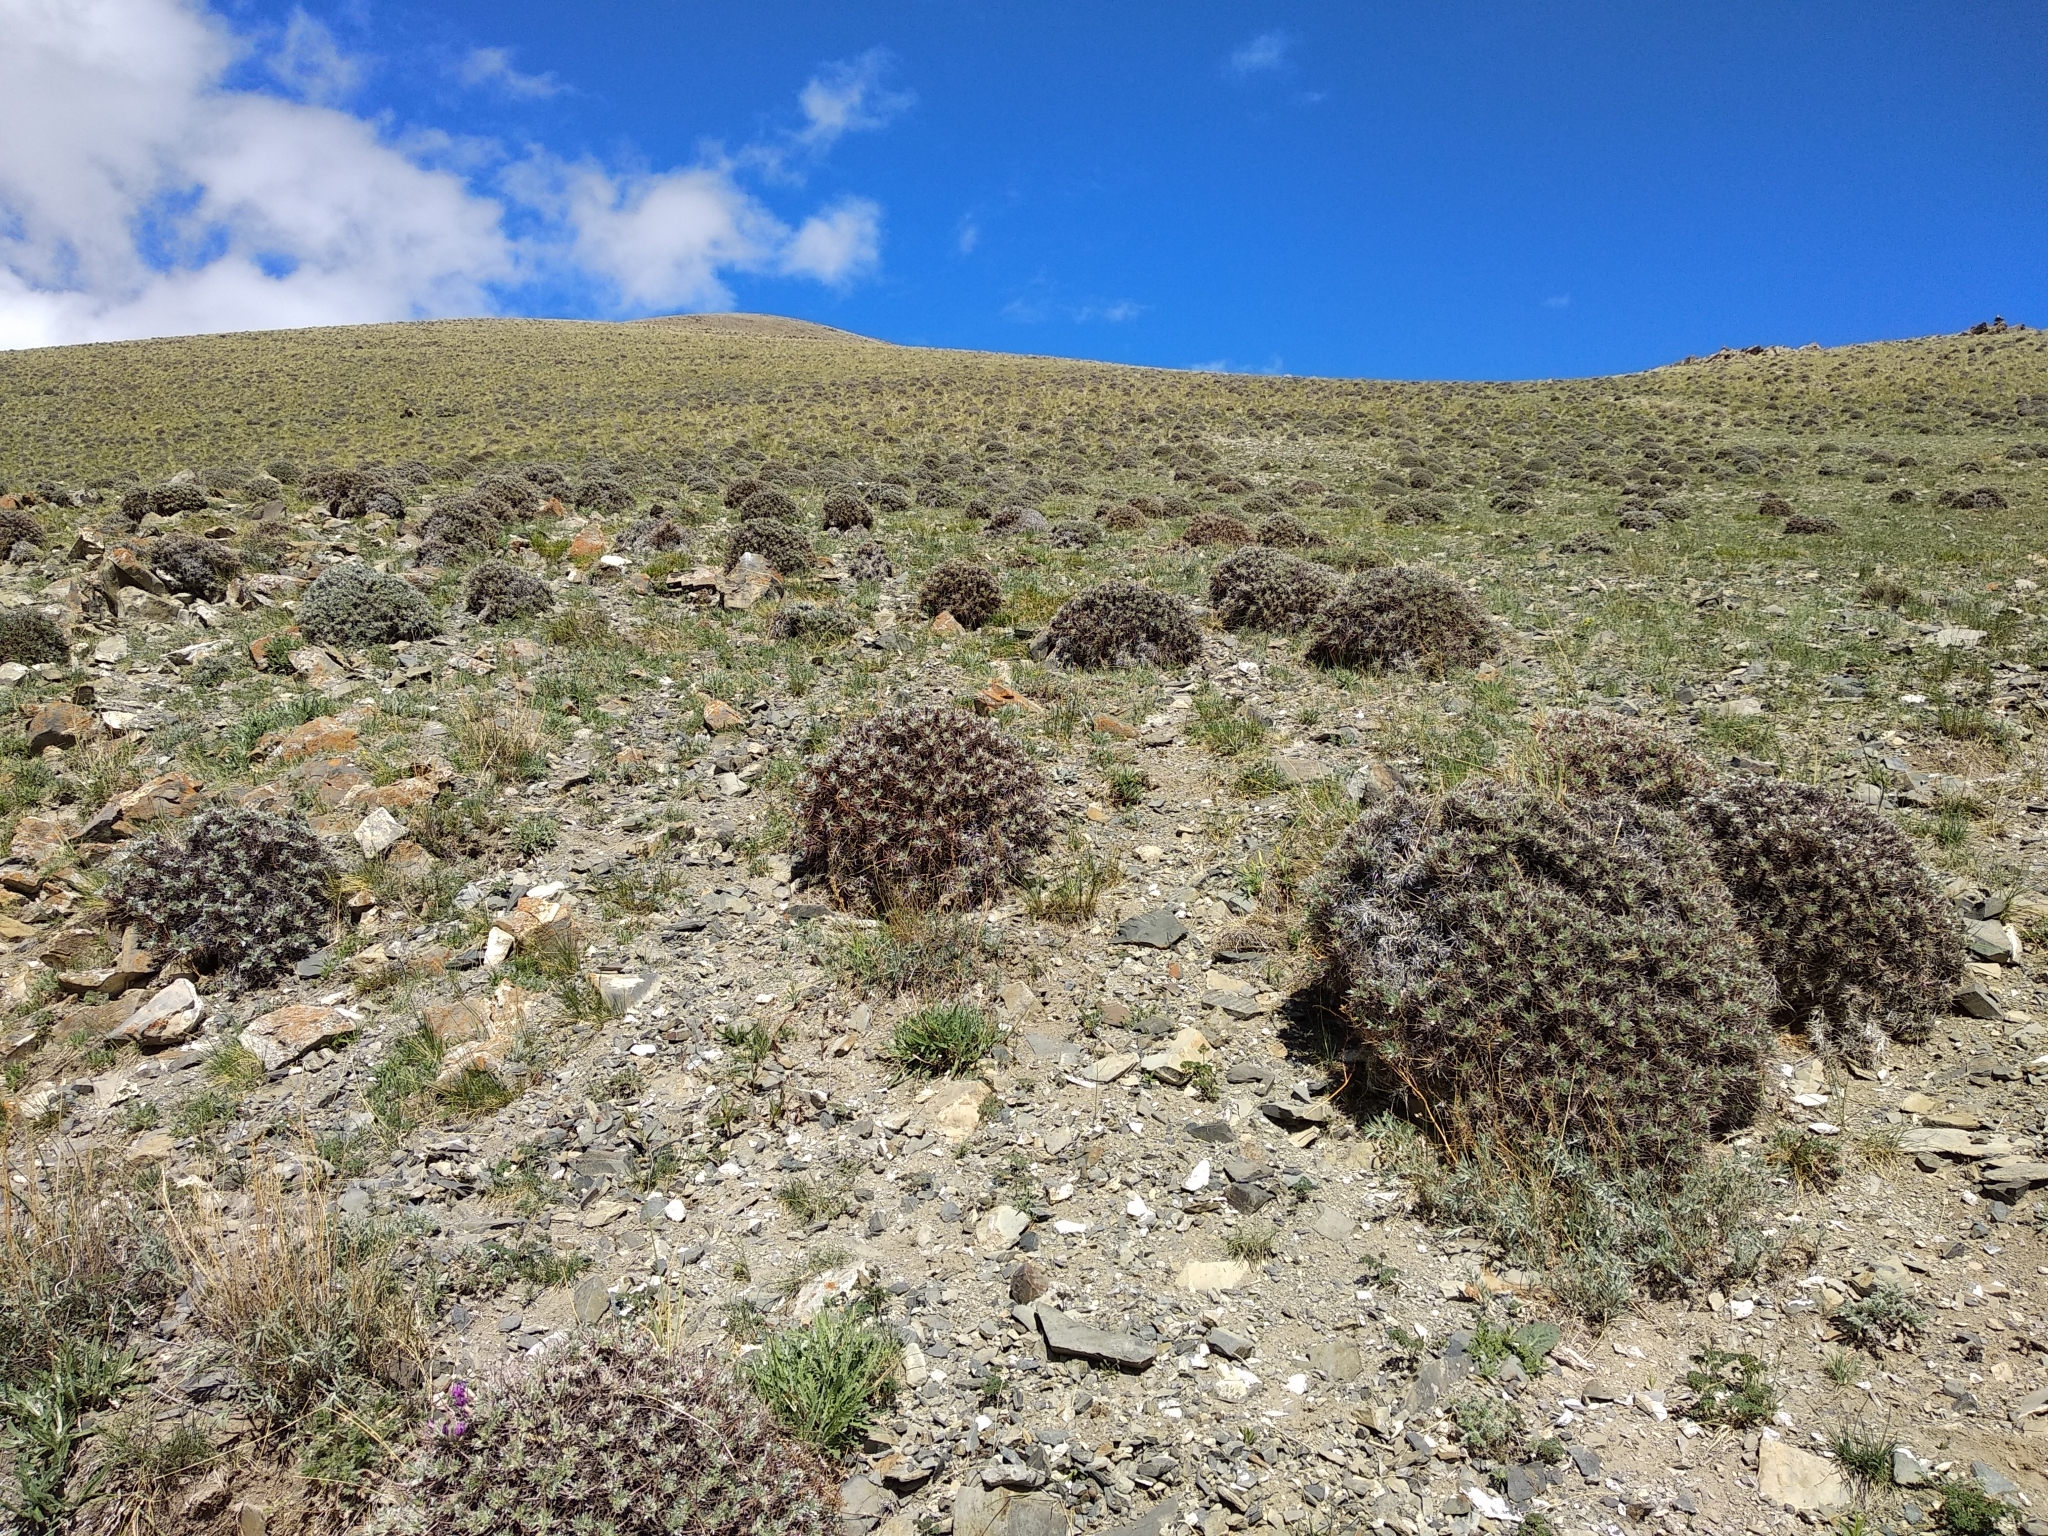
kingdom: Plantae
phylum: Tracheophyta
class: Magnoliopsida
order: Fabales
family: Fabaceae
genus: Oxytropis
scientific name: Oxytropis tragacanthoides
